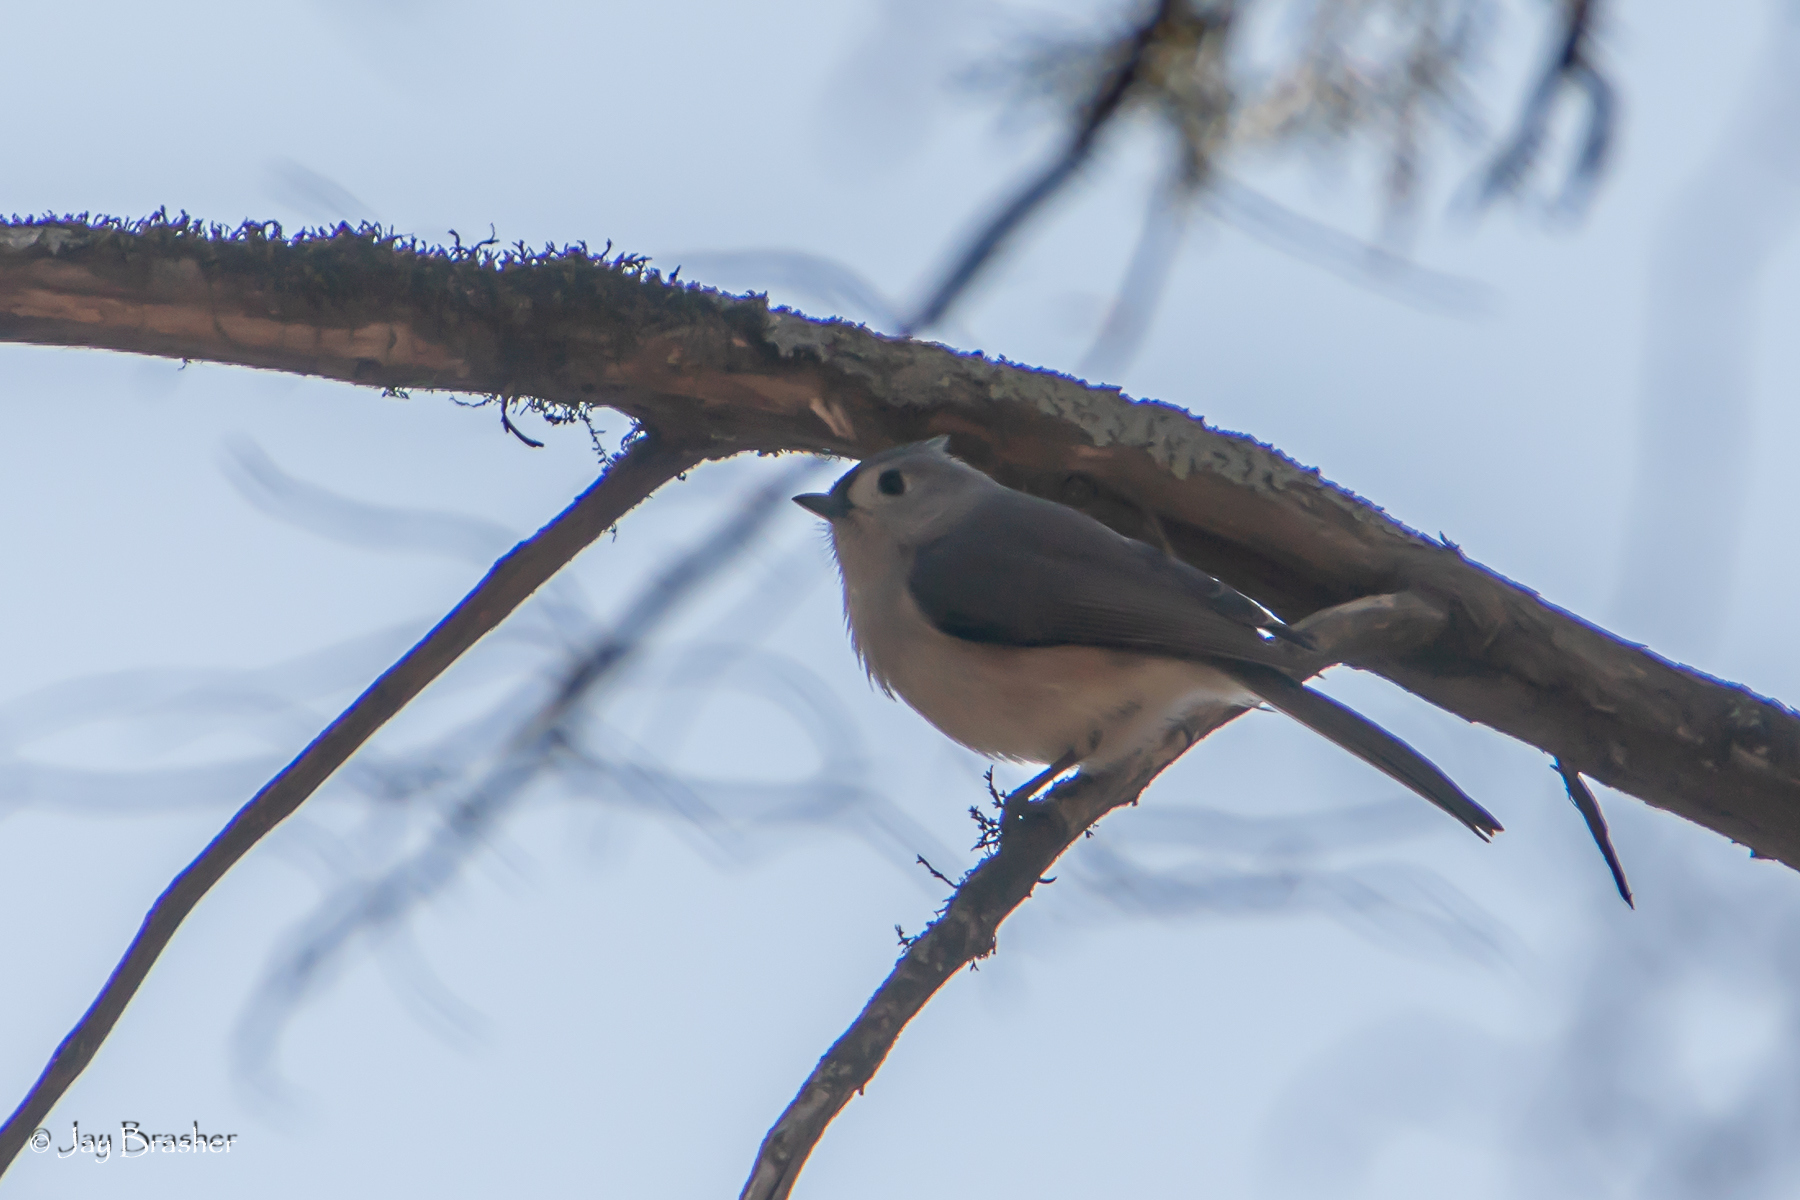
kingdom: Animalia
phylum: Chordata
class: Aves
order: Passeriformes
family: Paridae
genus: Baeolophus
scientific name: Baeolophus bicolor
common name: Tufted titmouse
